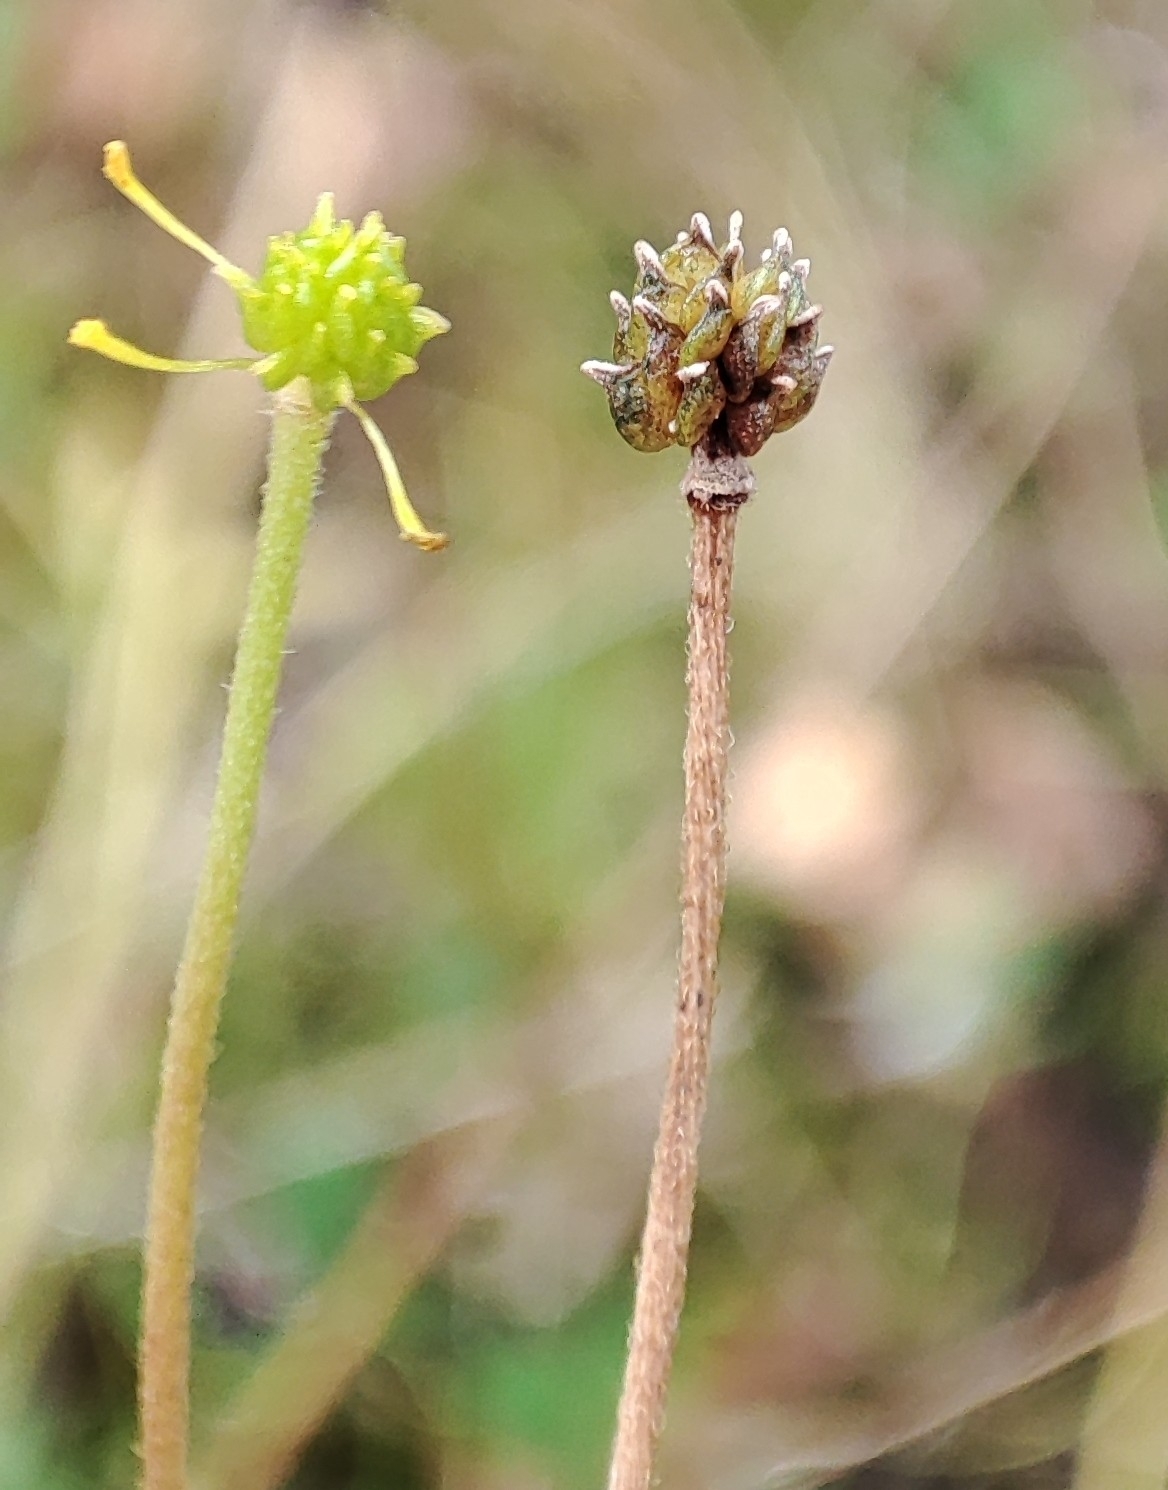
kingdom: Plantae
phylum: Tracheophyta
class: Magnoliopsida
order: Ranunculales
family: Ranunculaceae
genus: Ranunculus
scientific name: Ranunculus propinquus
